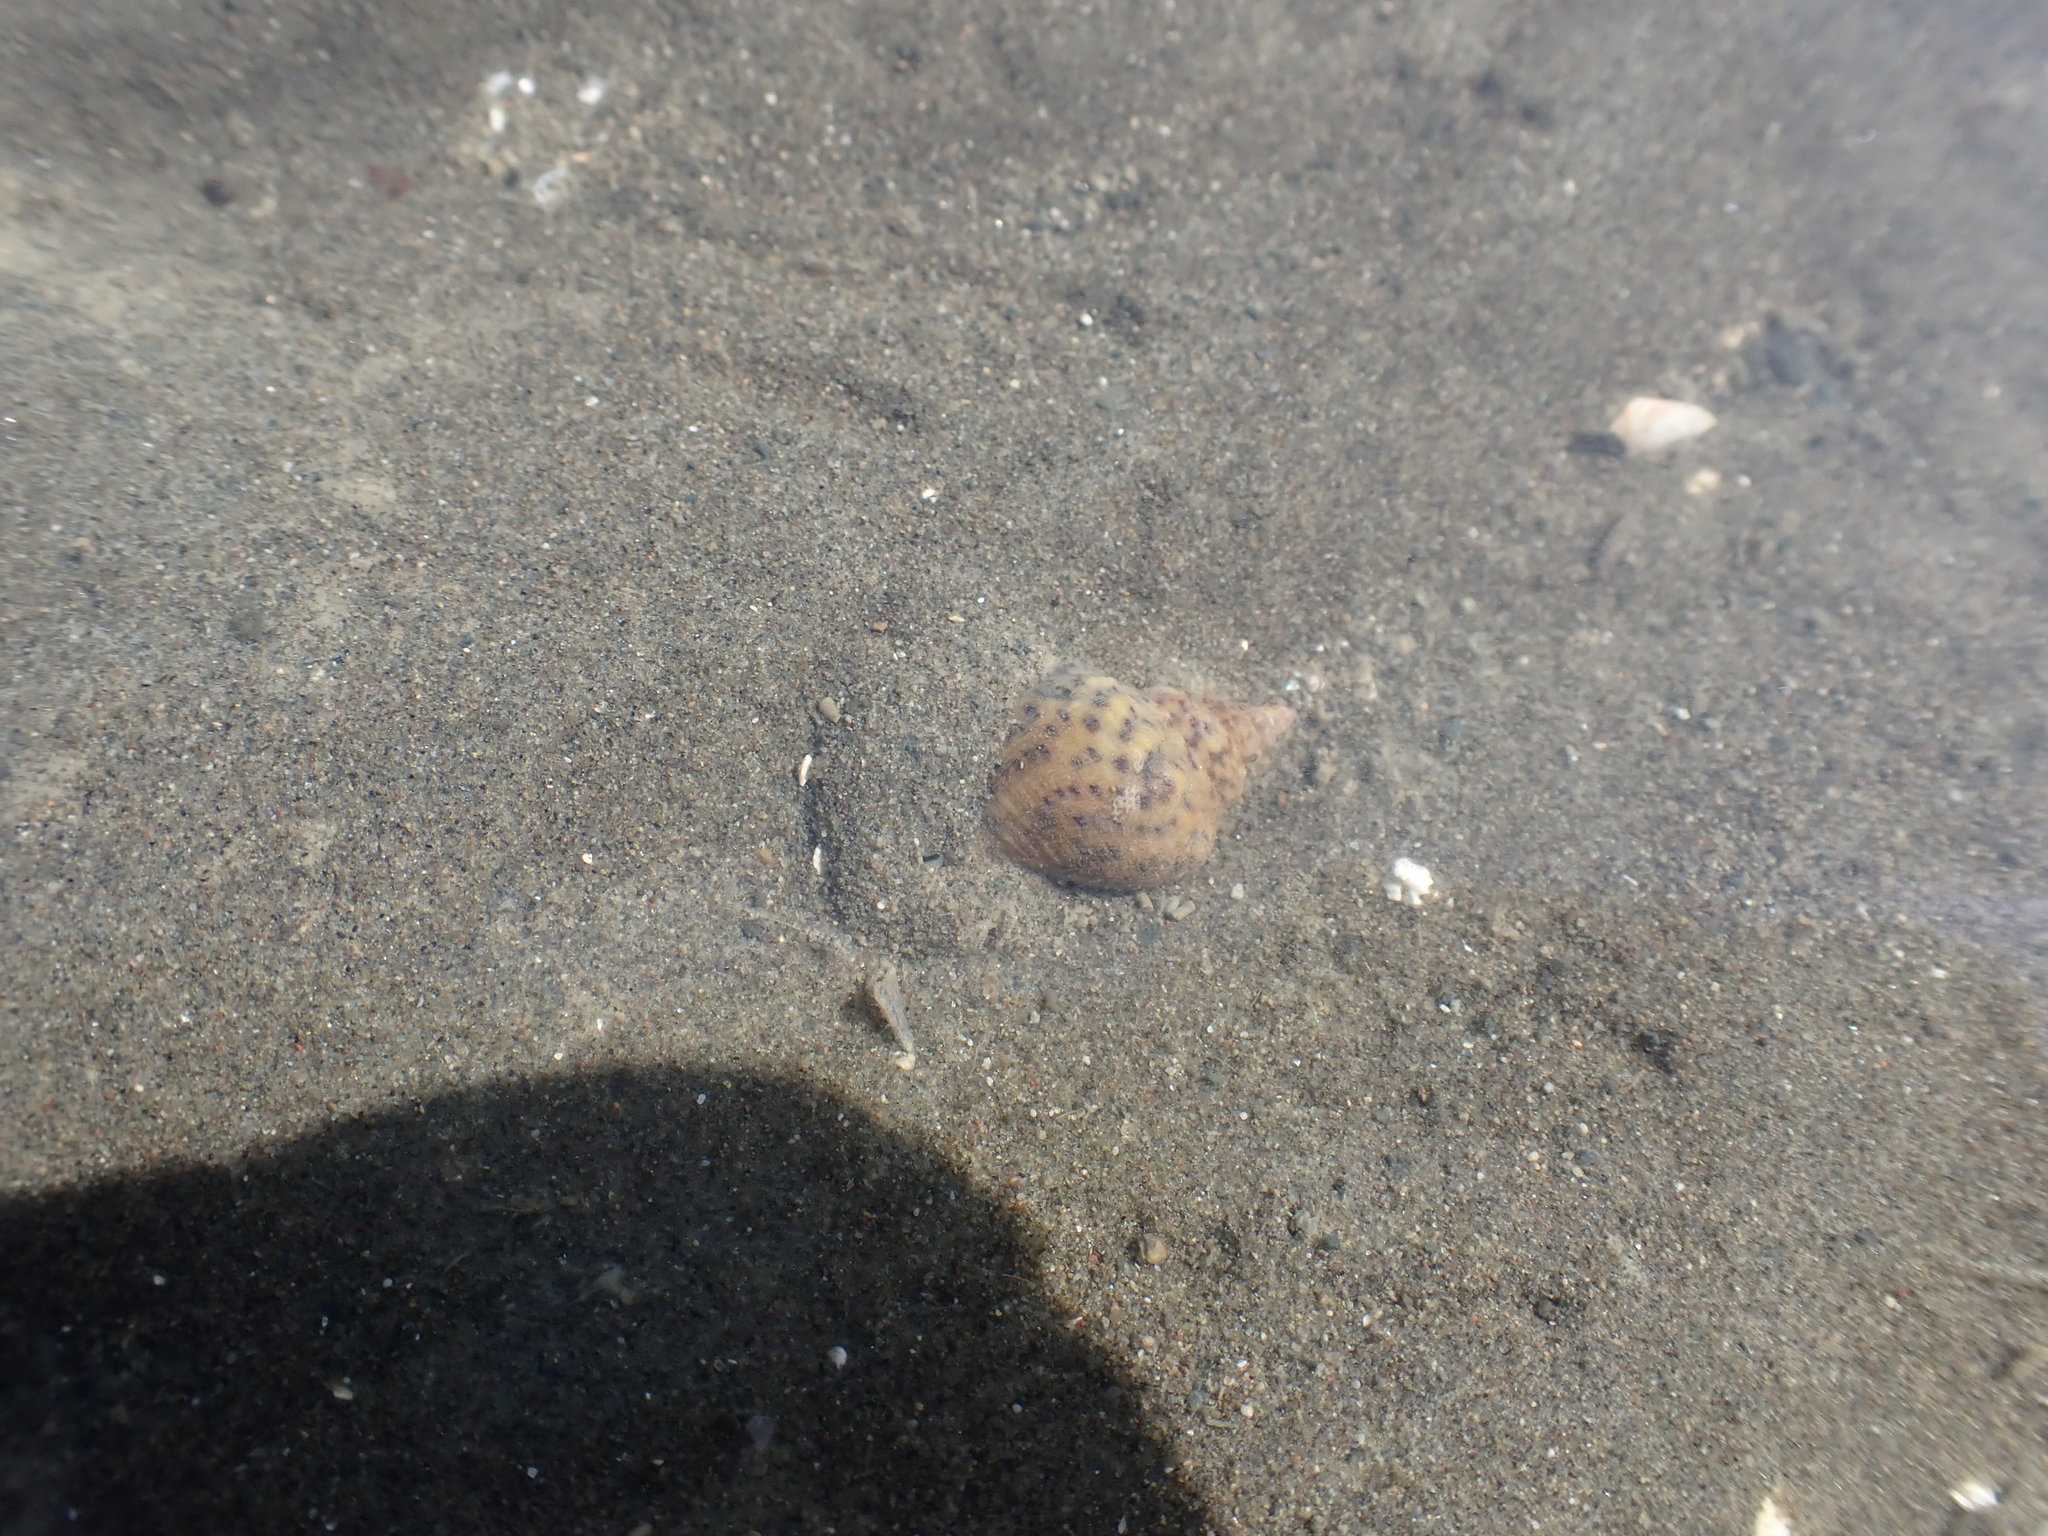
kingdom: Animalia
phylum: Mollusca
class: Gastropoda
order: Neogastropoda
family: Cominellidae
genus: Cominella
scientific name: Cominella adspersa
